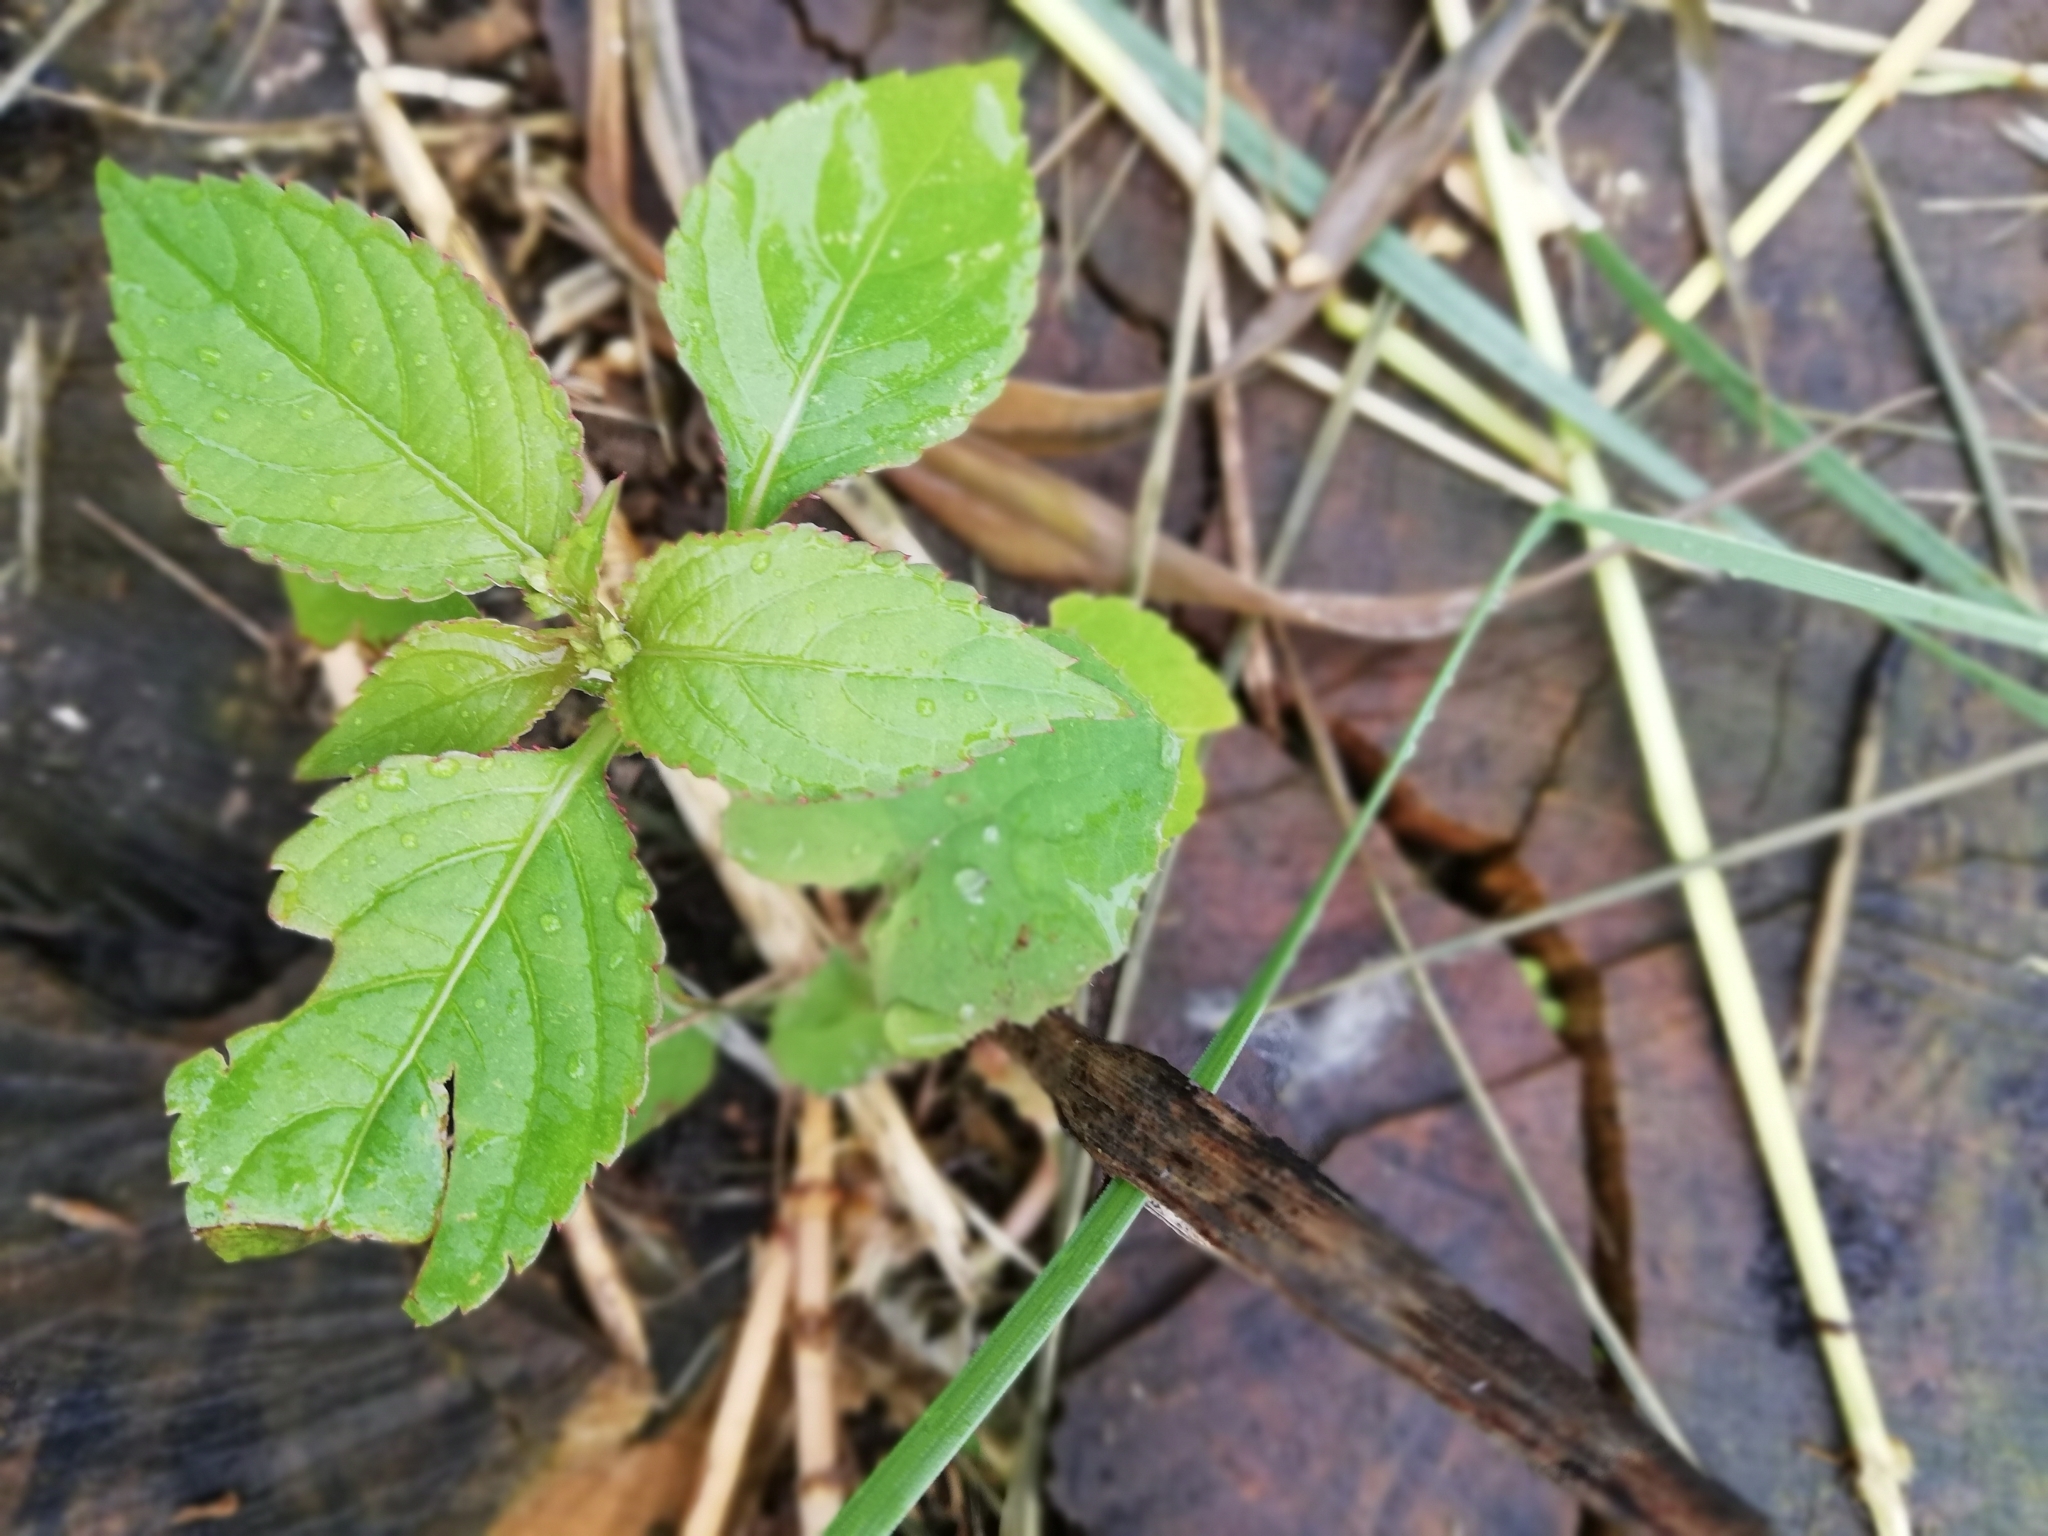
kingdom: Plantae
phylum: Tracheophyta
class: Magnoliopsida
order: Ericales
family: Balsaminaceae
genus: Impatiens
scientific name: Impatiens parviflora
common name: Small balsam
